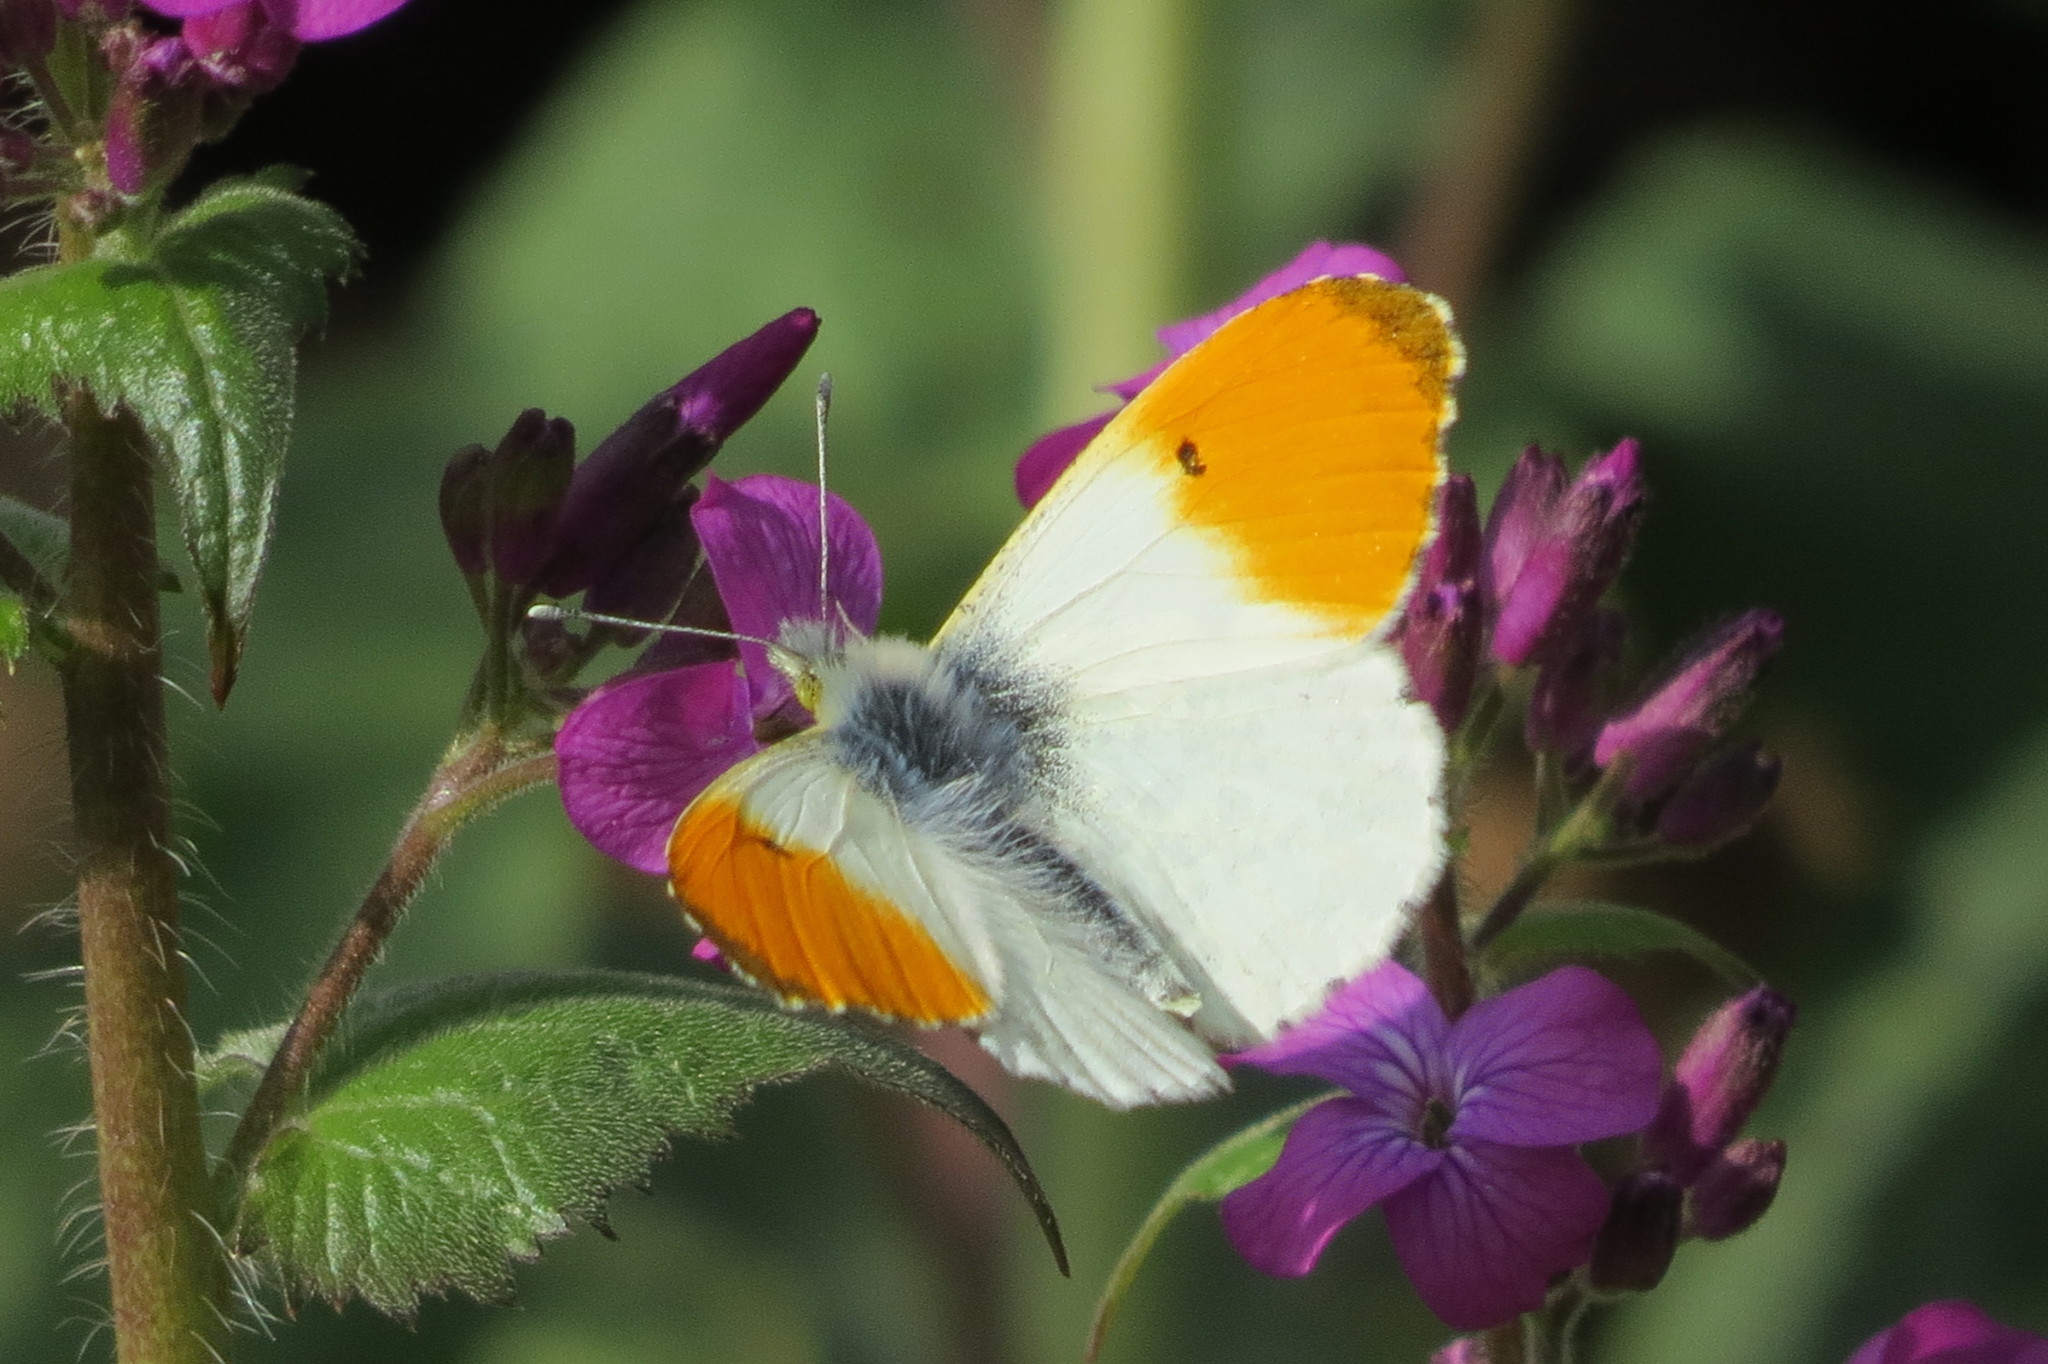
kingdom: Animalia
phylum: Arthropoda
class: Insecta
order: Lepidoptera
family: Pieridae
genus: Anthocharis
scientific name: Anthocharis cardamines
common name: Orange-tip
